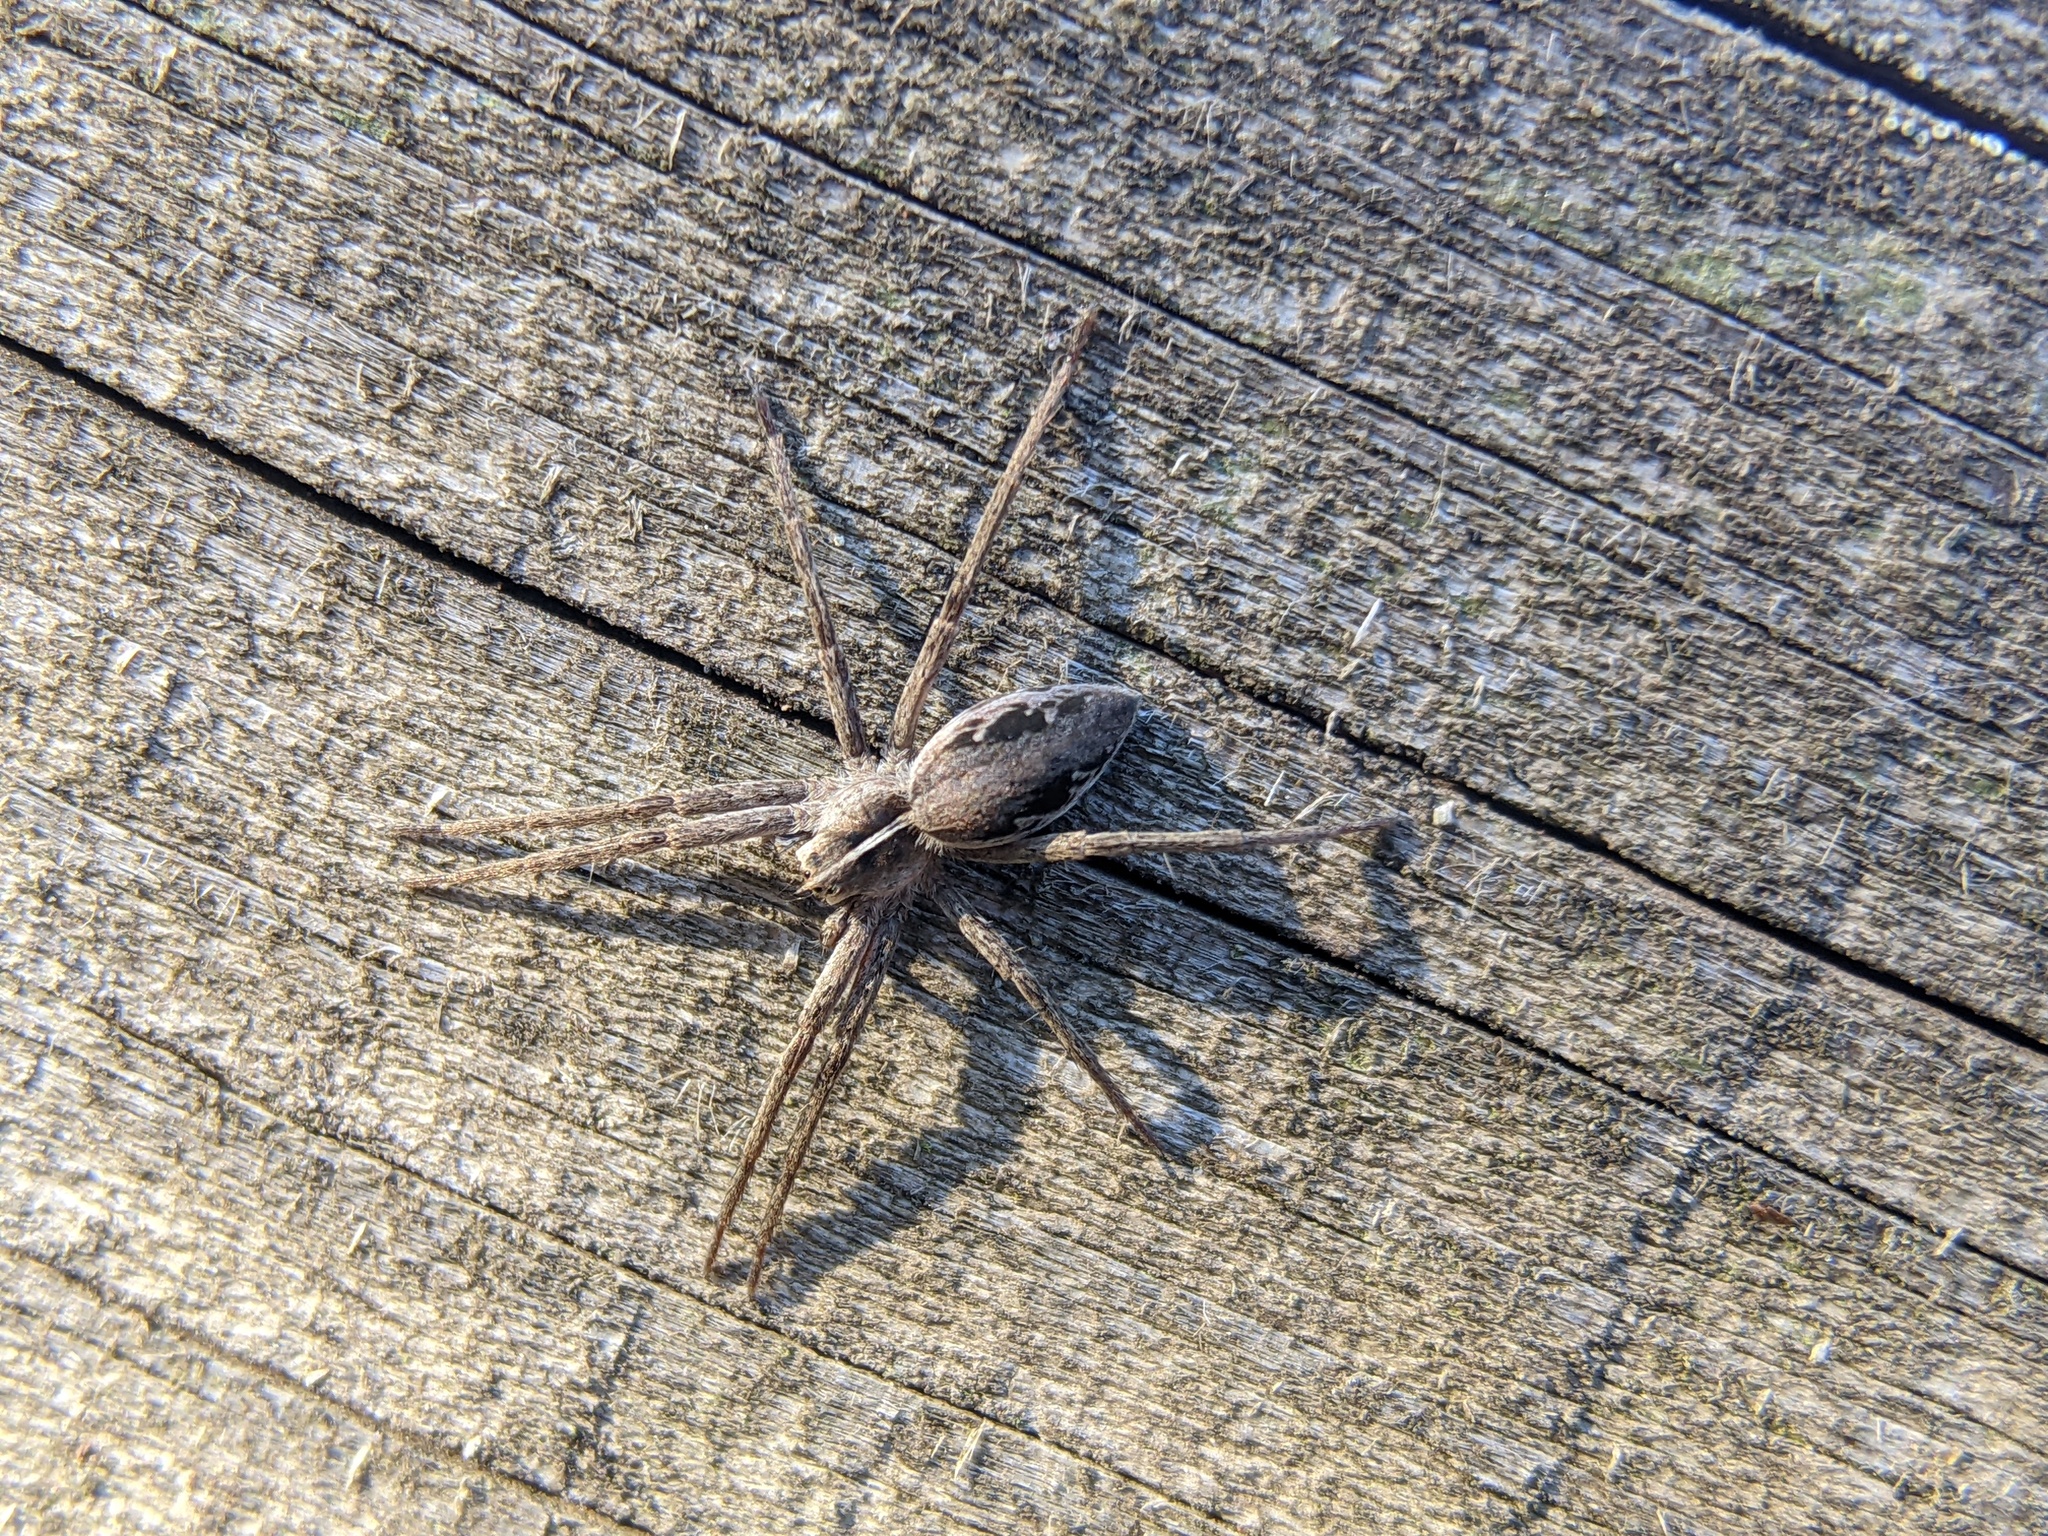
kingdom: Animalia
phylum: Arthropoda
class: Arachnida
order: Araneae
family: Pisauridae
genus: Pisaura
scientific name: Pisaura mirabilis
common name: Tent spider
